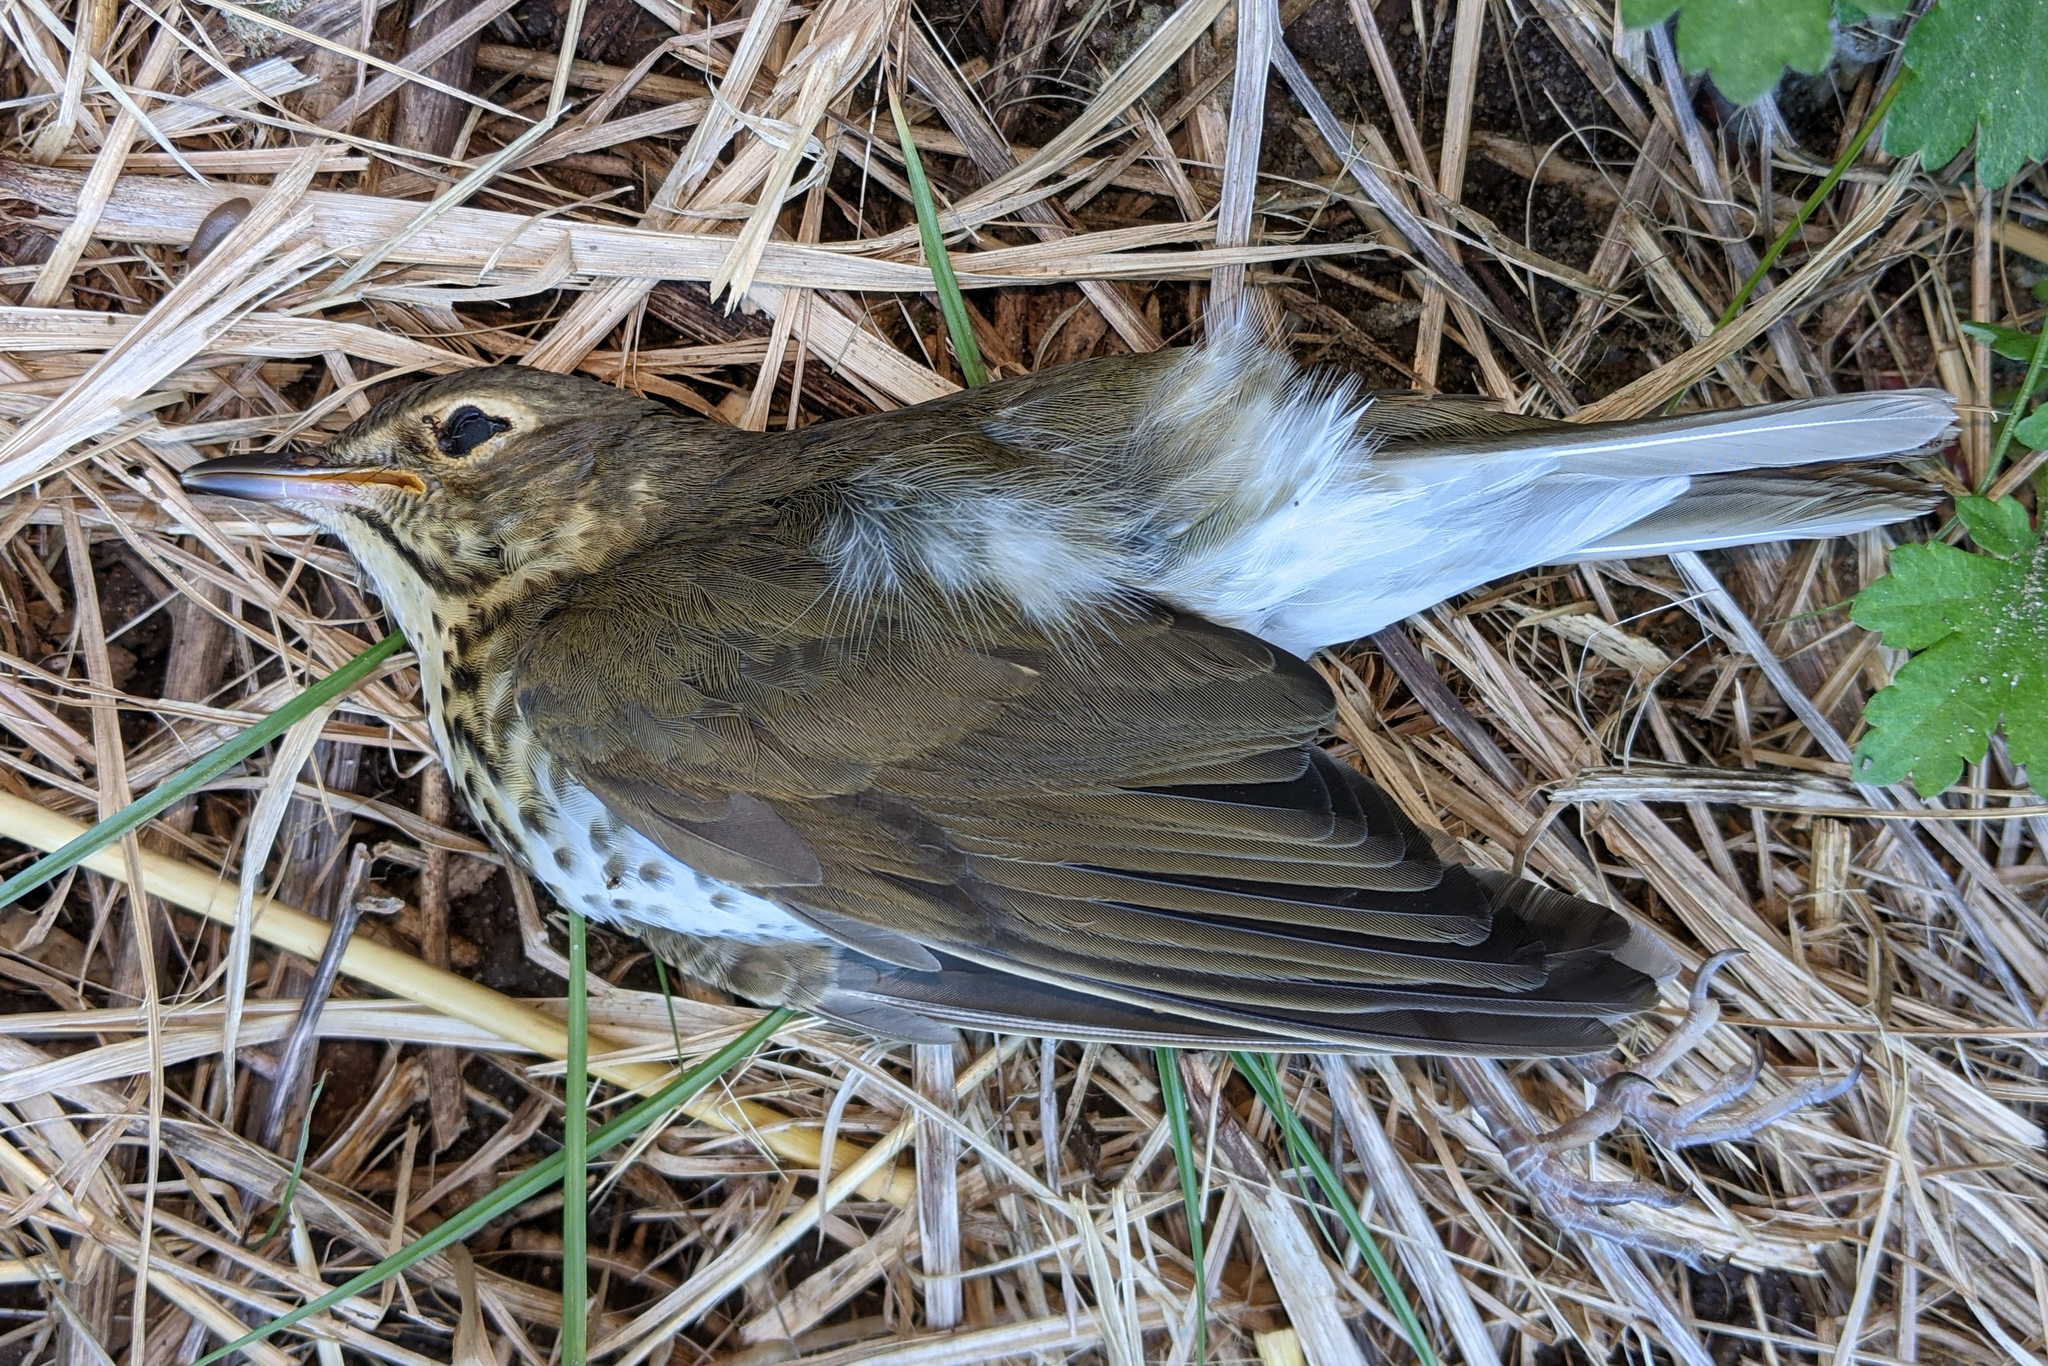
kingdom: Animalia
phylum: Chordata
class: Aves
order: Passeriformes
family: Turdidae
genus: Catharus
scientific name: Catharus ustulatus
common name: Swainson's thrush
